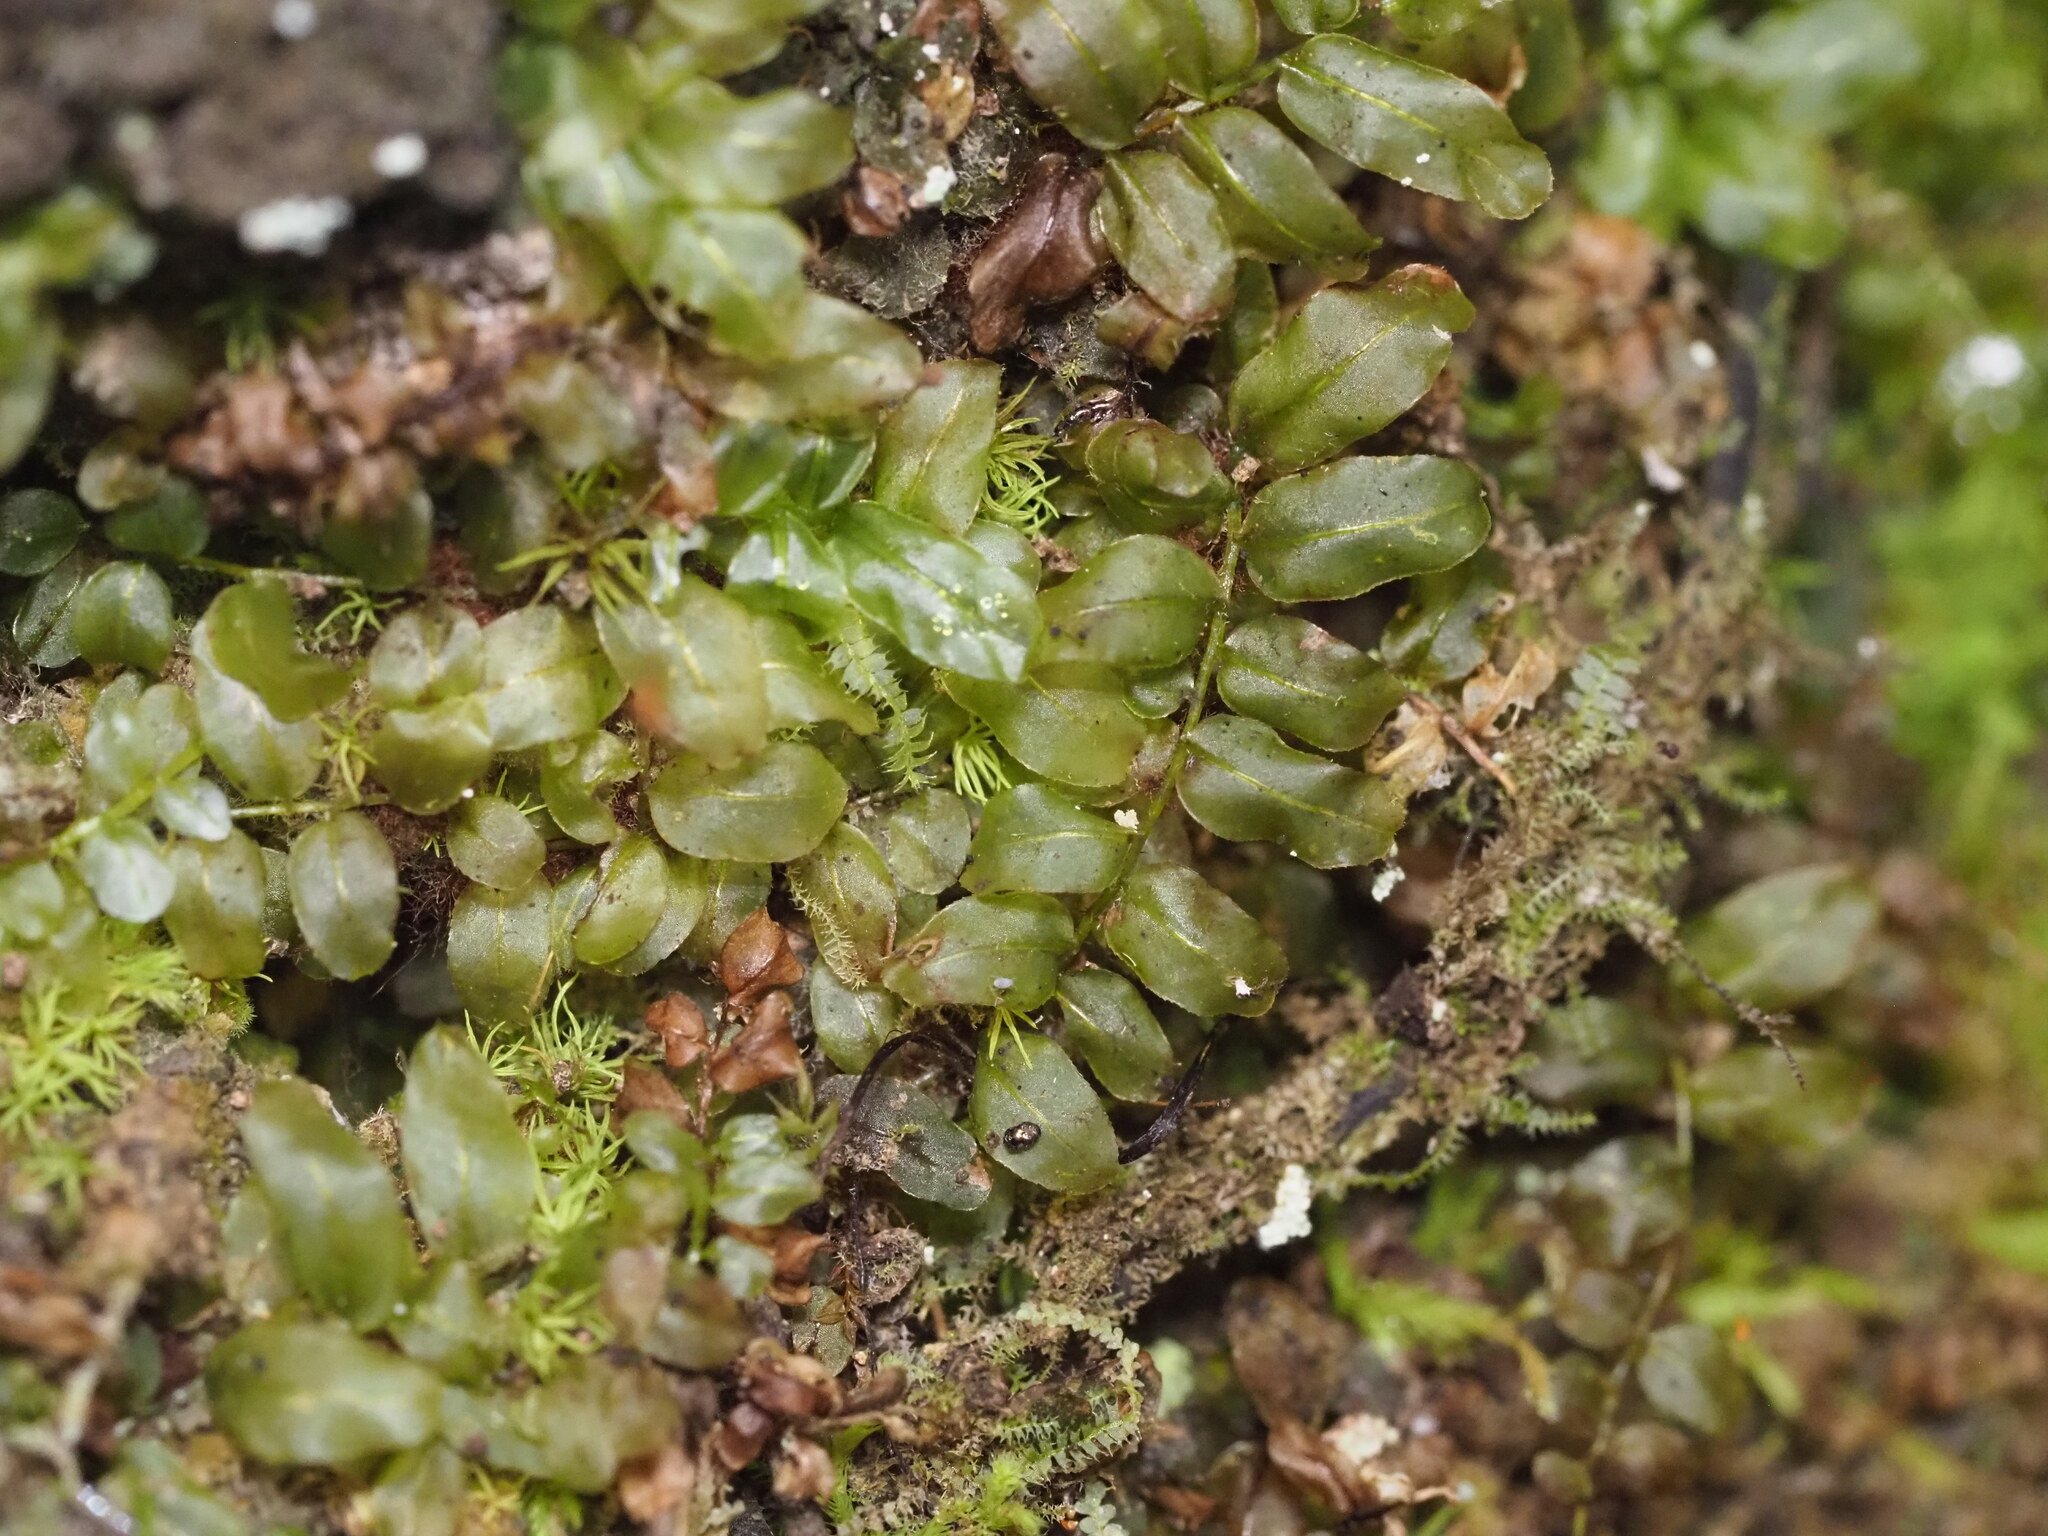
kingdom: Plantae
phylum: Bryophyta
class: Bryopsida
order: Bryales
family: Mniaceae
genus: Plagiomnium
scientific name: Plagiomnium rostratum
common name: Long-beaked leafy moss
